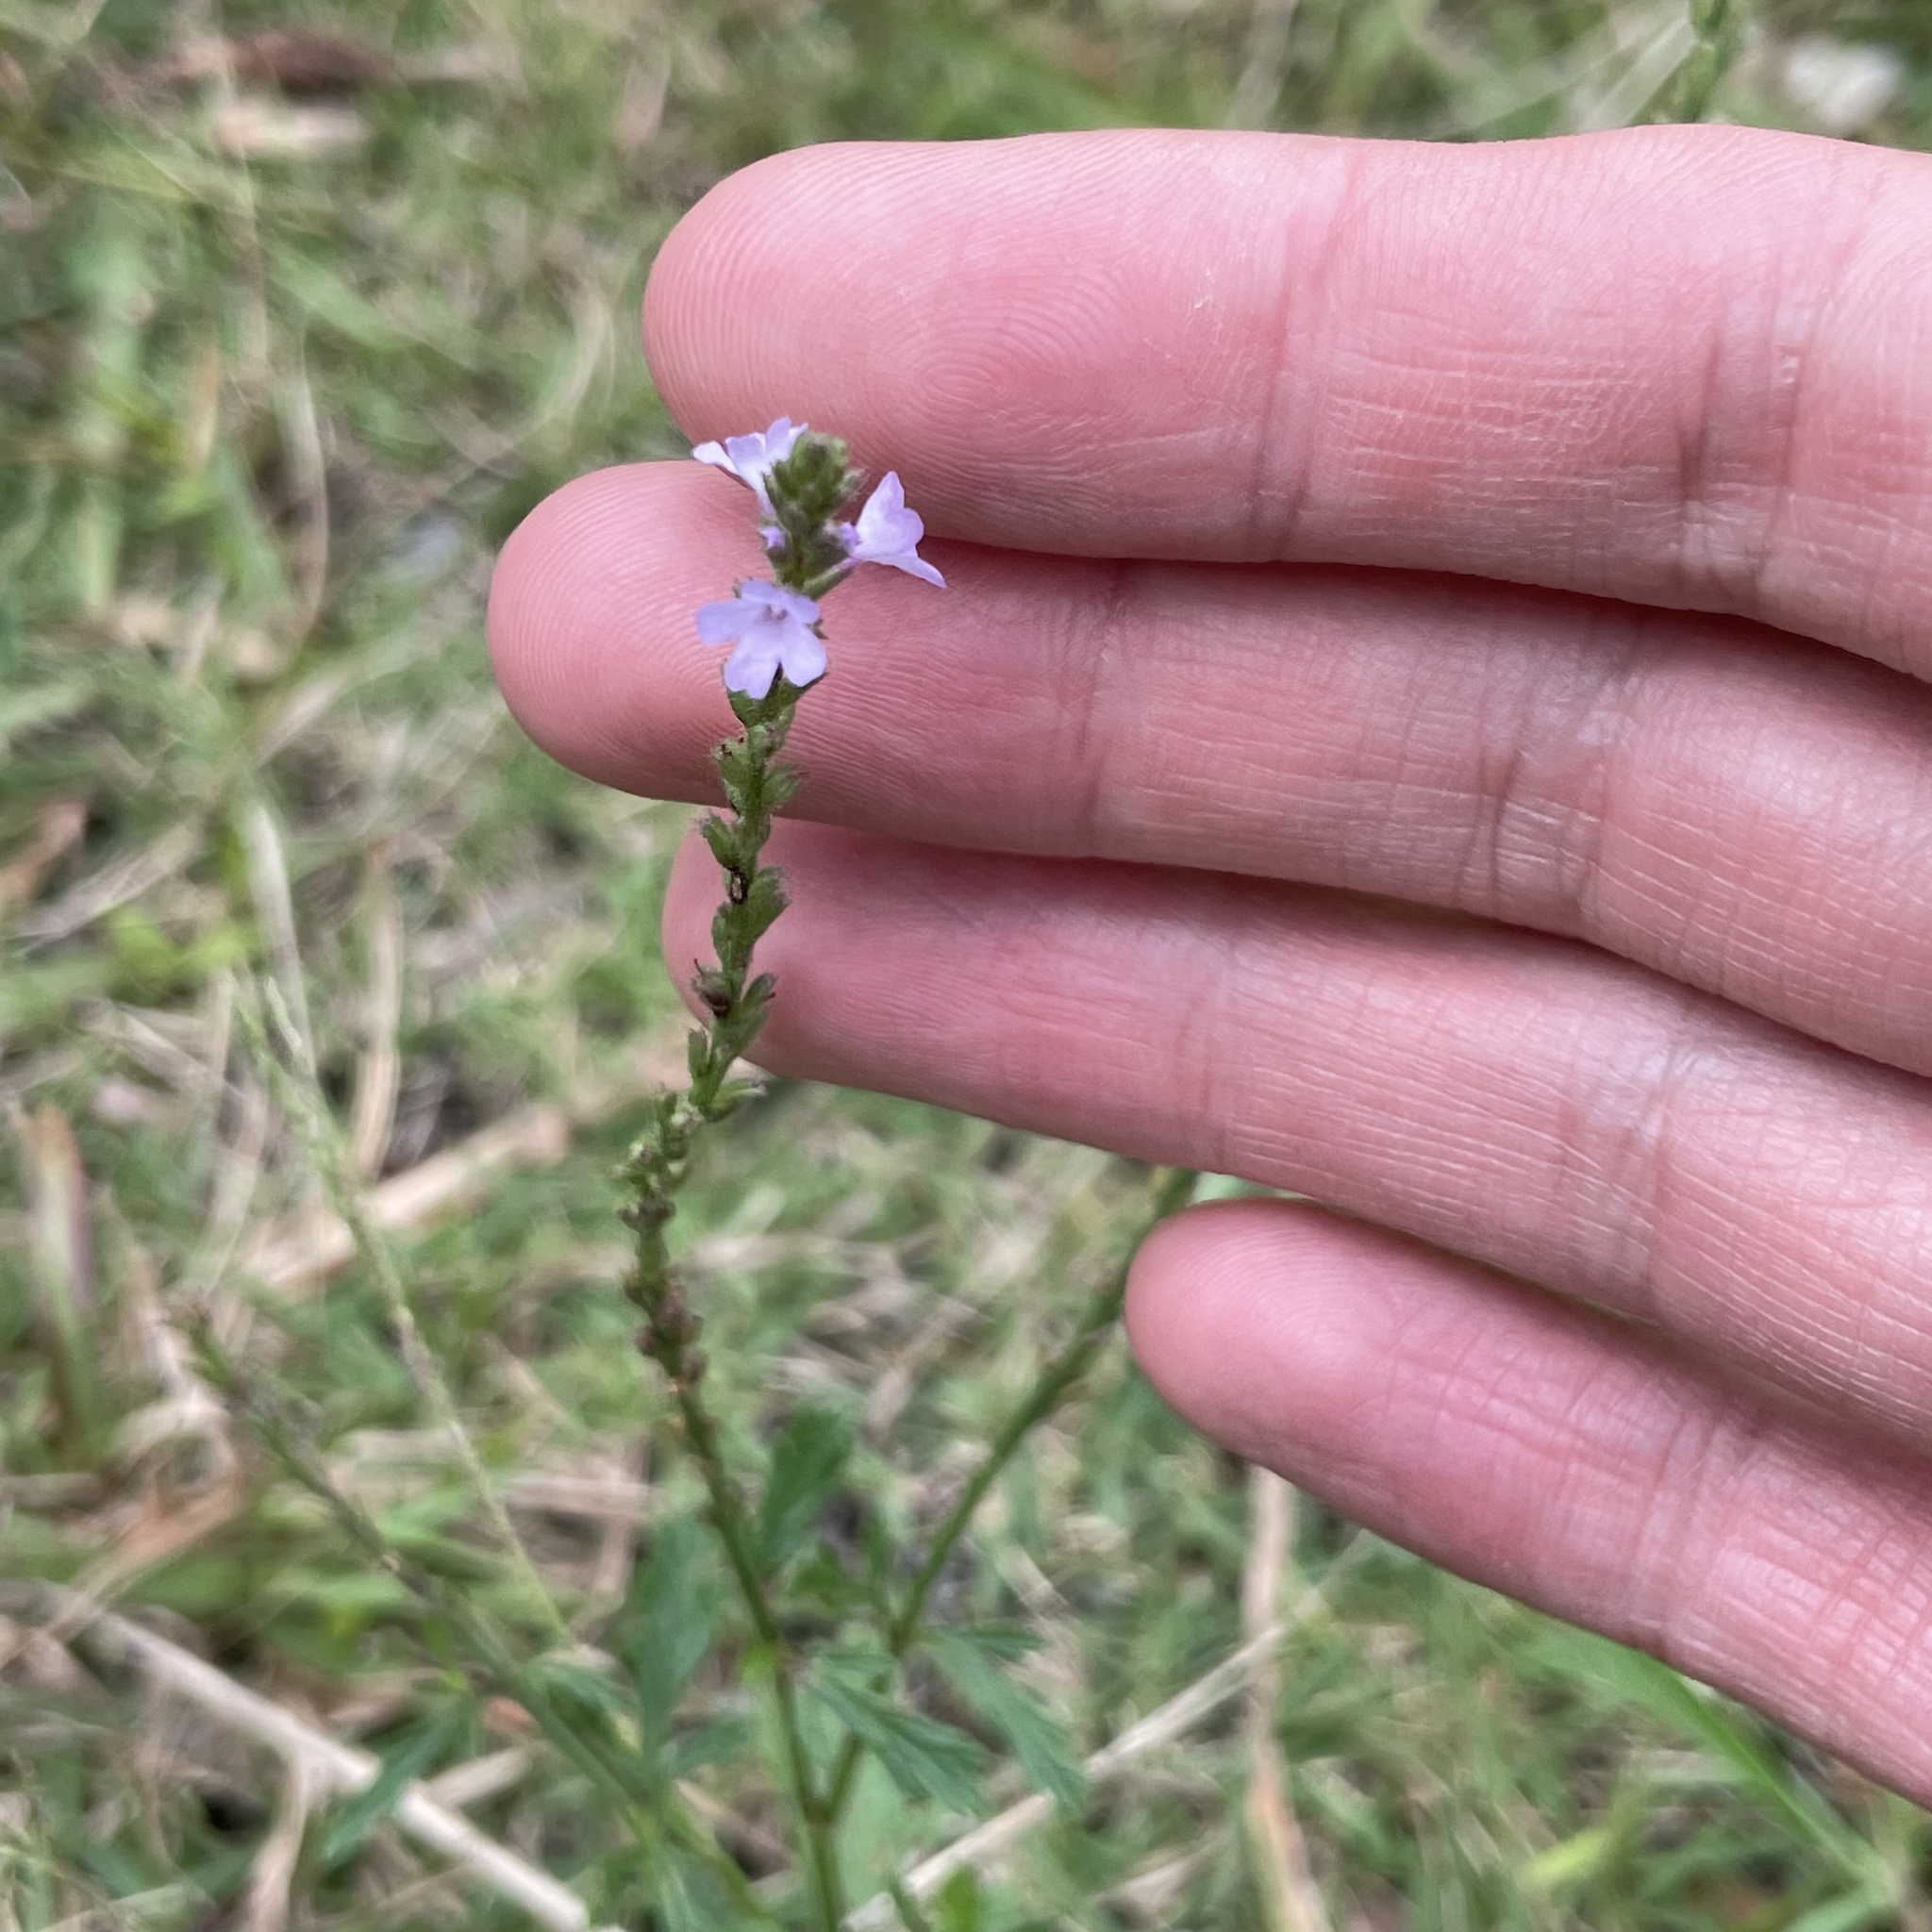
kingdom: Plantae
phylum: Tracheophyta
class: Magnoliopsida
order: Lamiales
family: Verbenaceae
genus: Verbena
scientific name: Verbena officinalis
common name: Vervain
